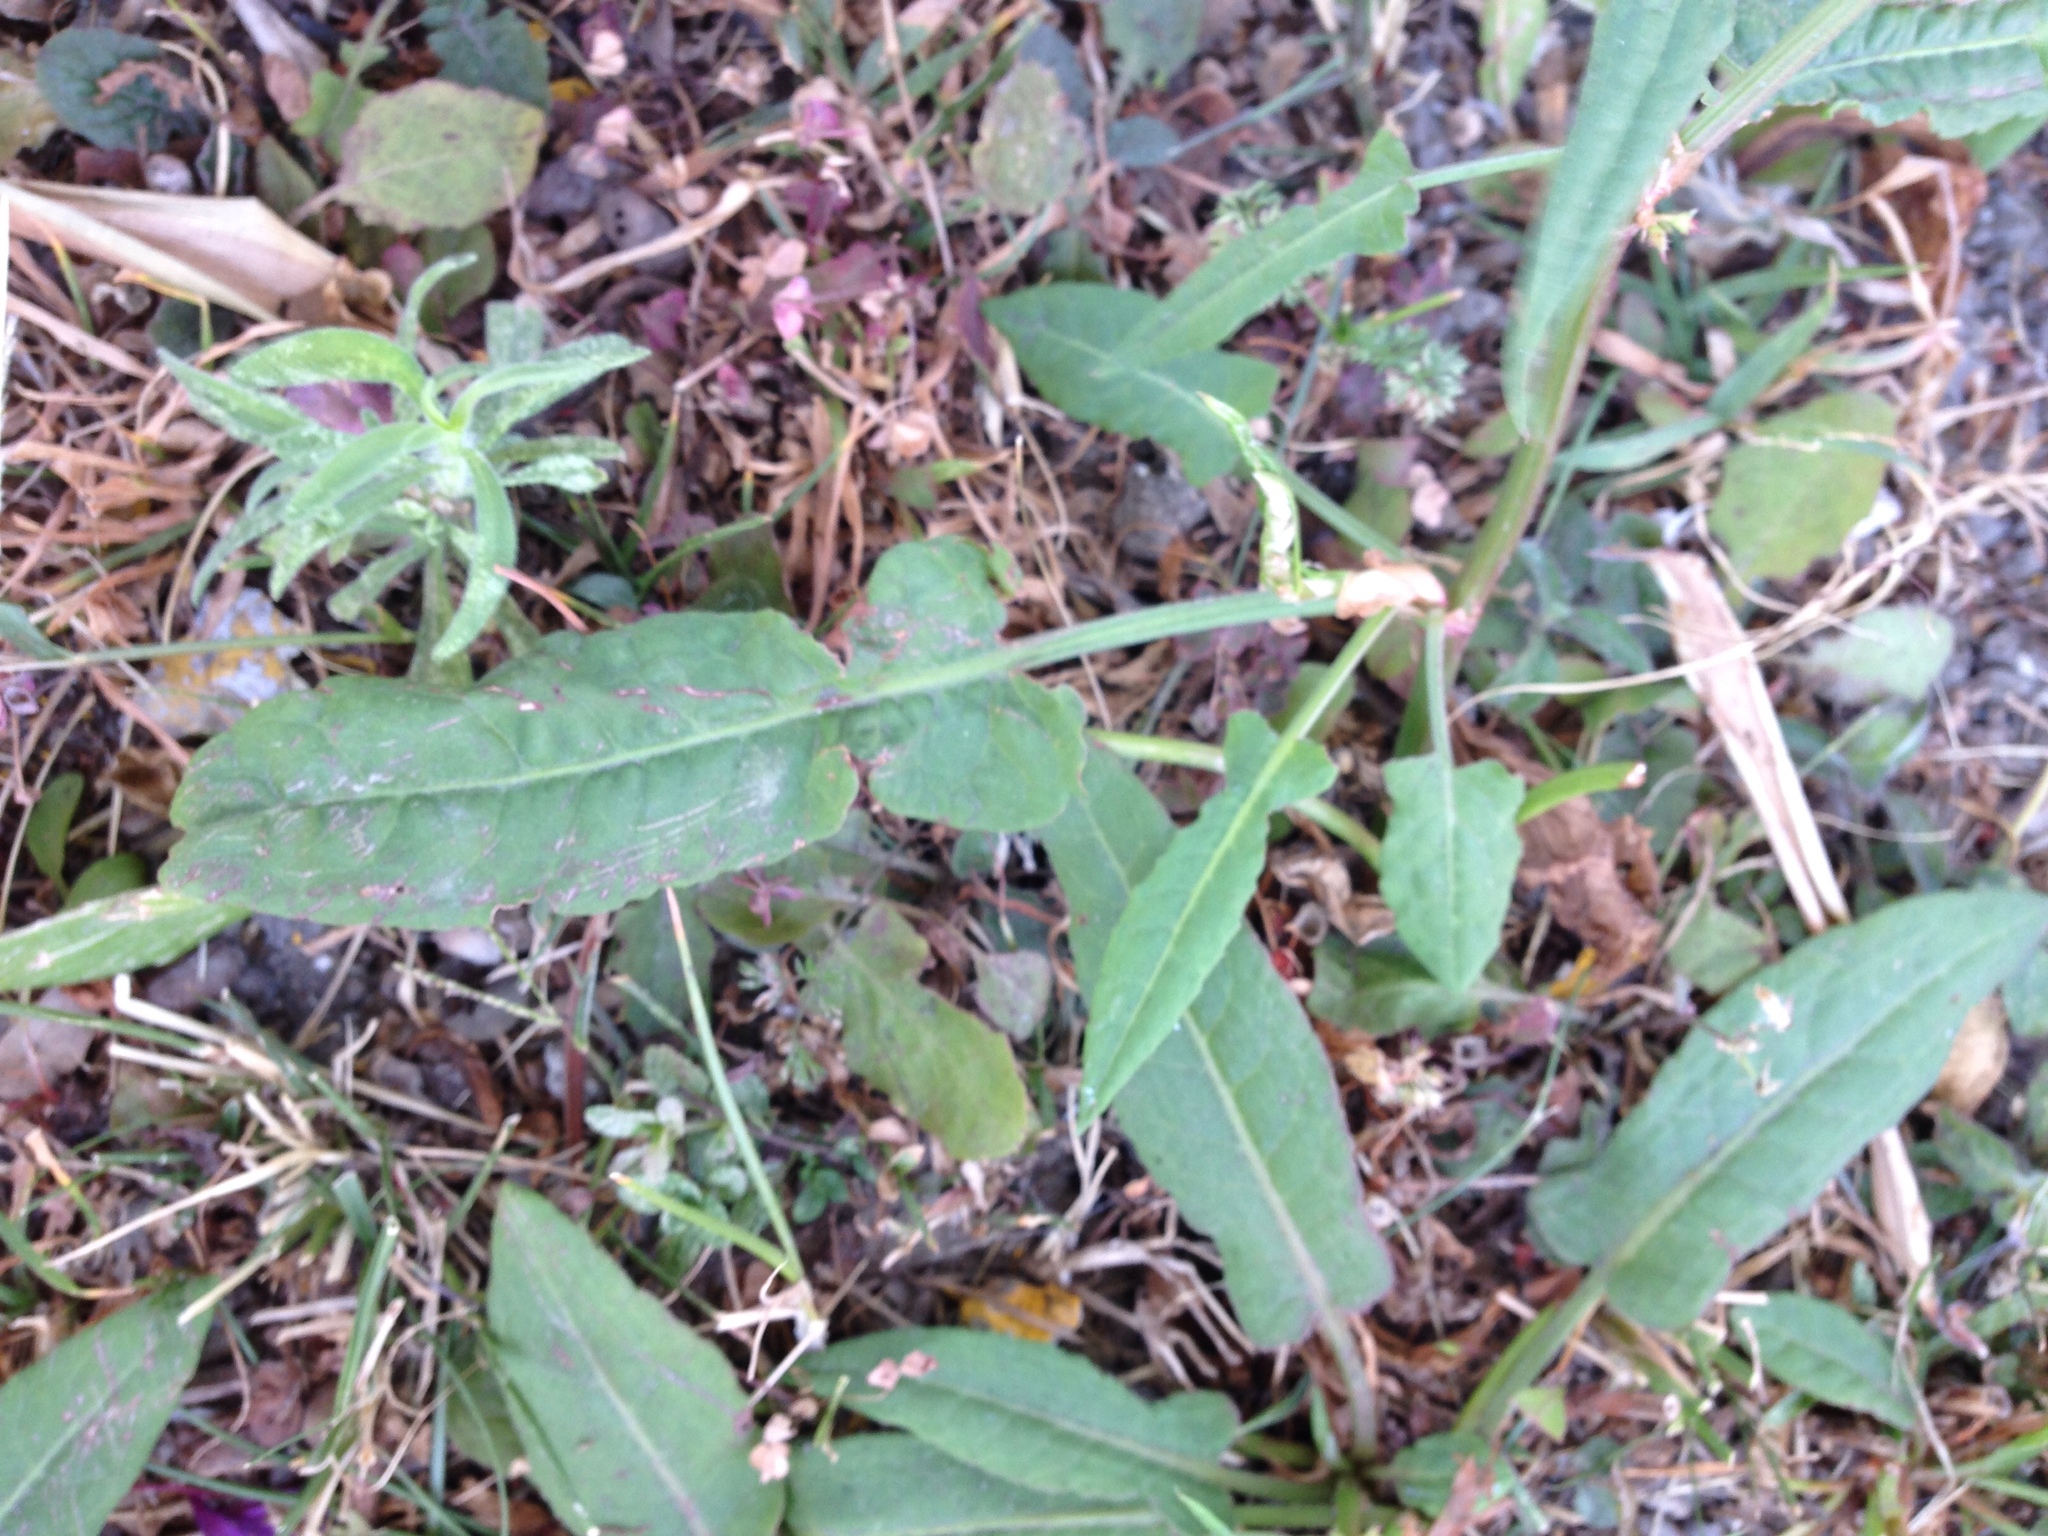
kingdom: Plantae
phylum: Tracheophyta
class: Magnoliopsida
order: Caryophyllales
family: Polygonaceae
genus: Rumex
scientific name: Rumex pulcher
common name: Fiddle dock
